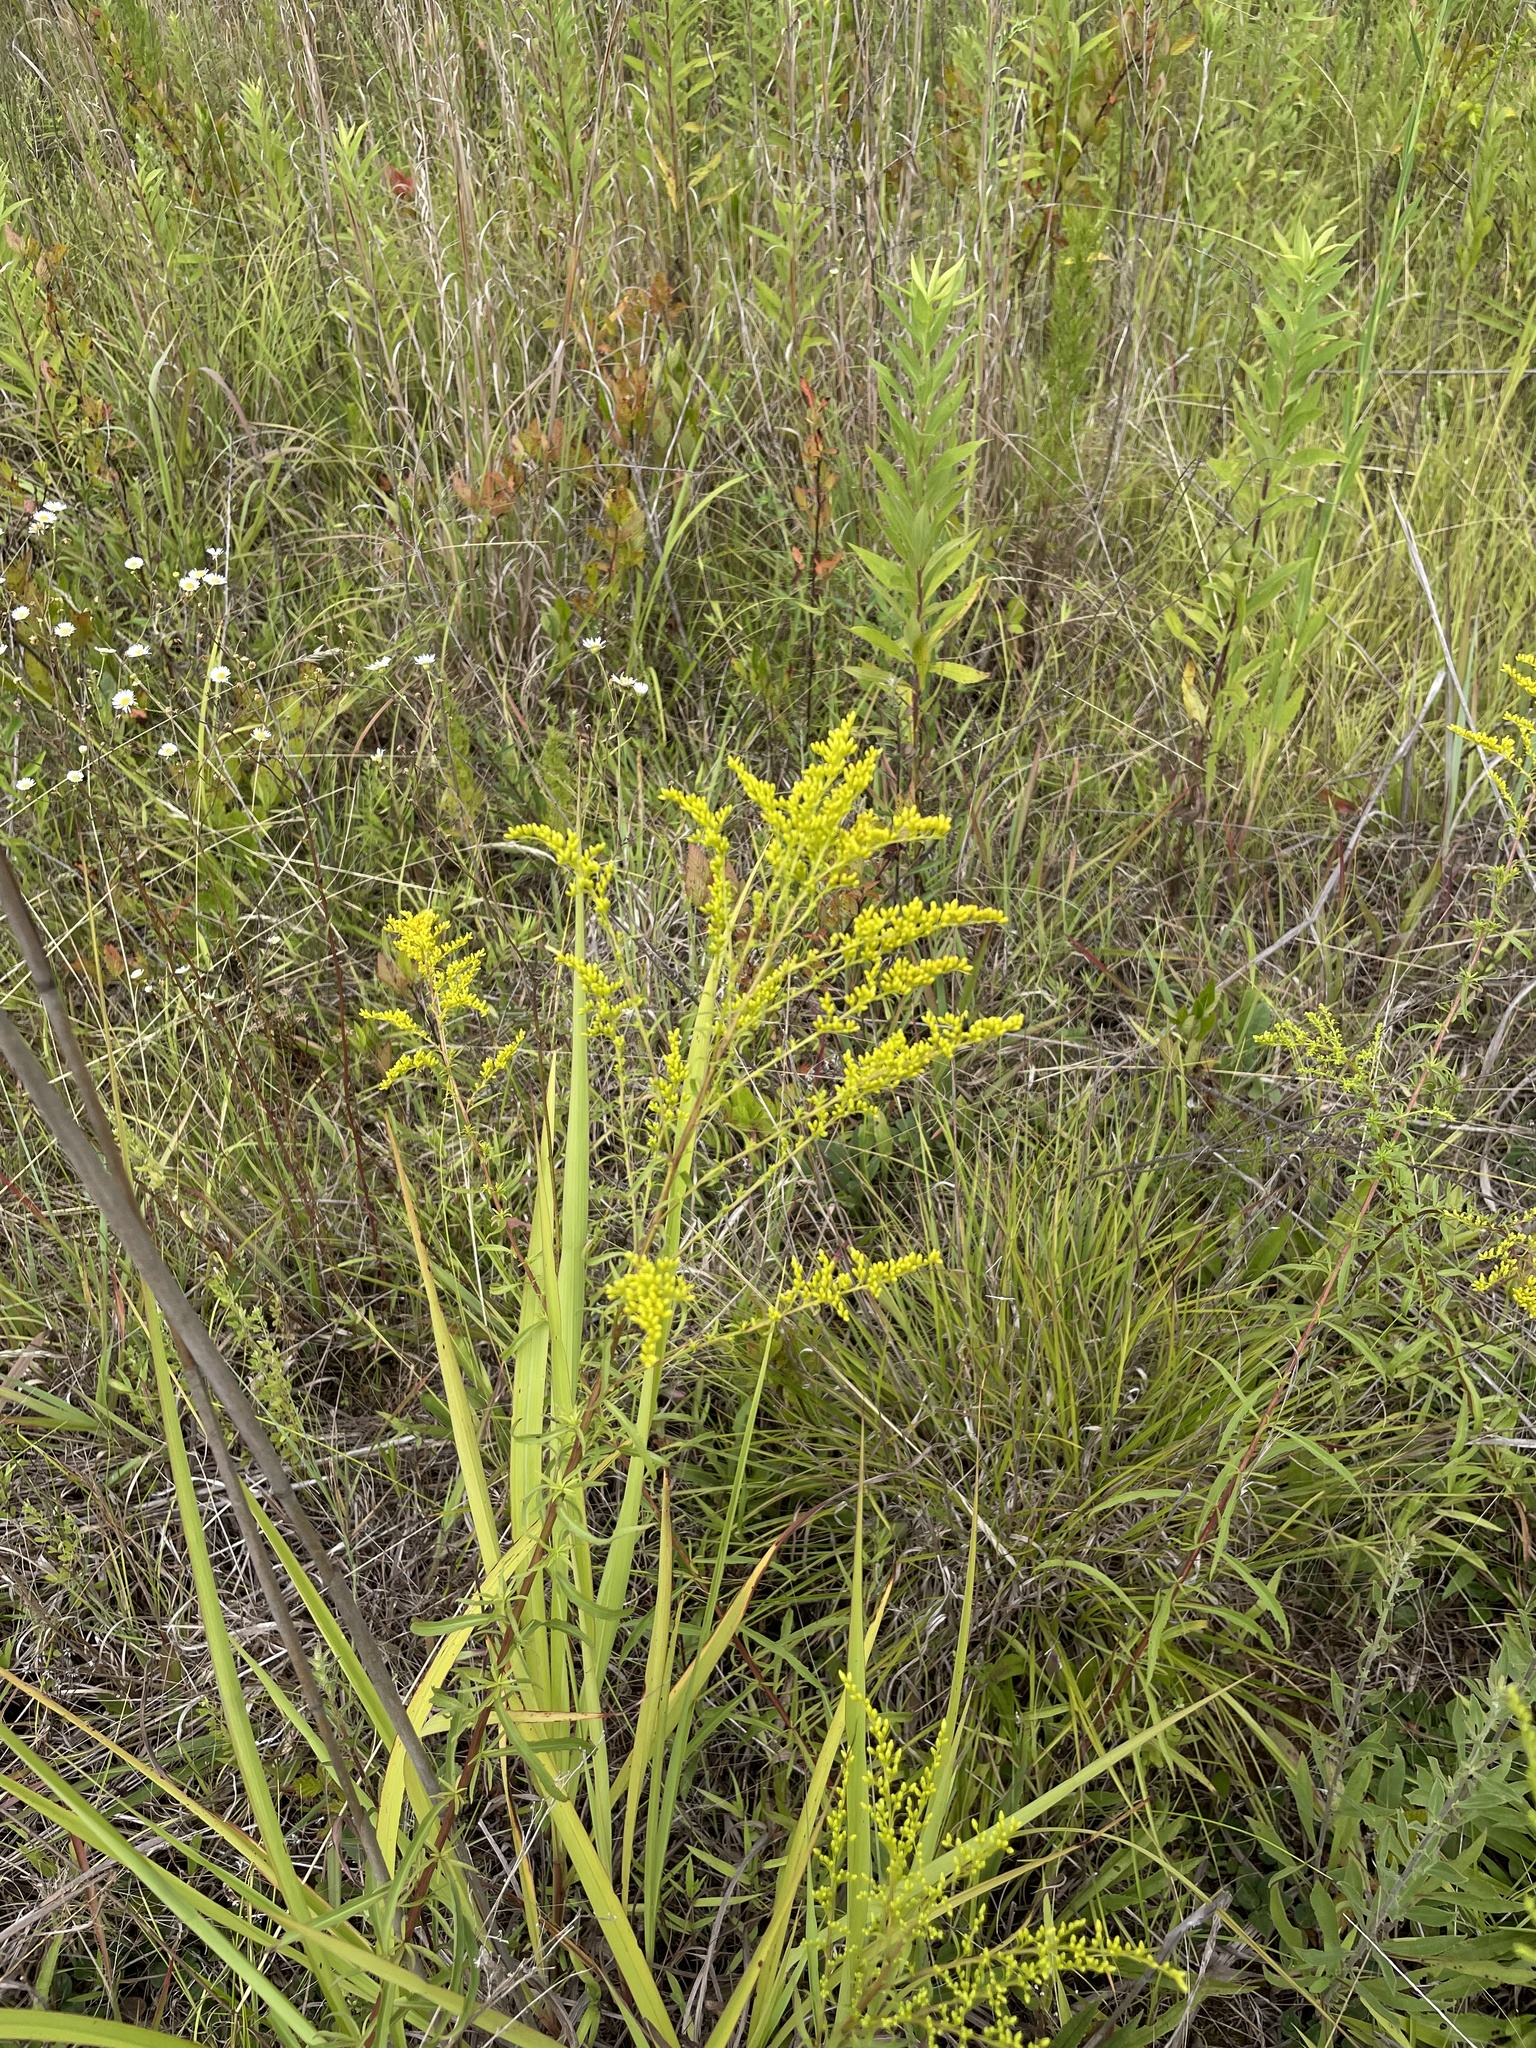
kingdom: Plantae
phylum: Tracheophyta
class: Magnoliopsida
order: Asterales
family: Asteraceae
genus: Solidago
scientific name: Solidago pinetorum
